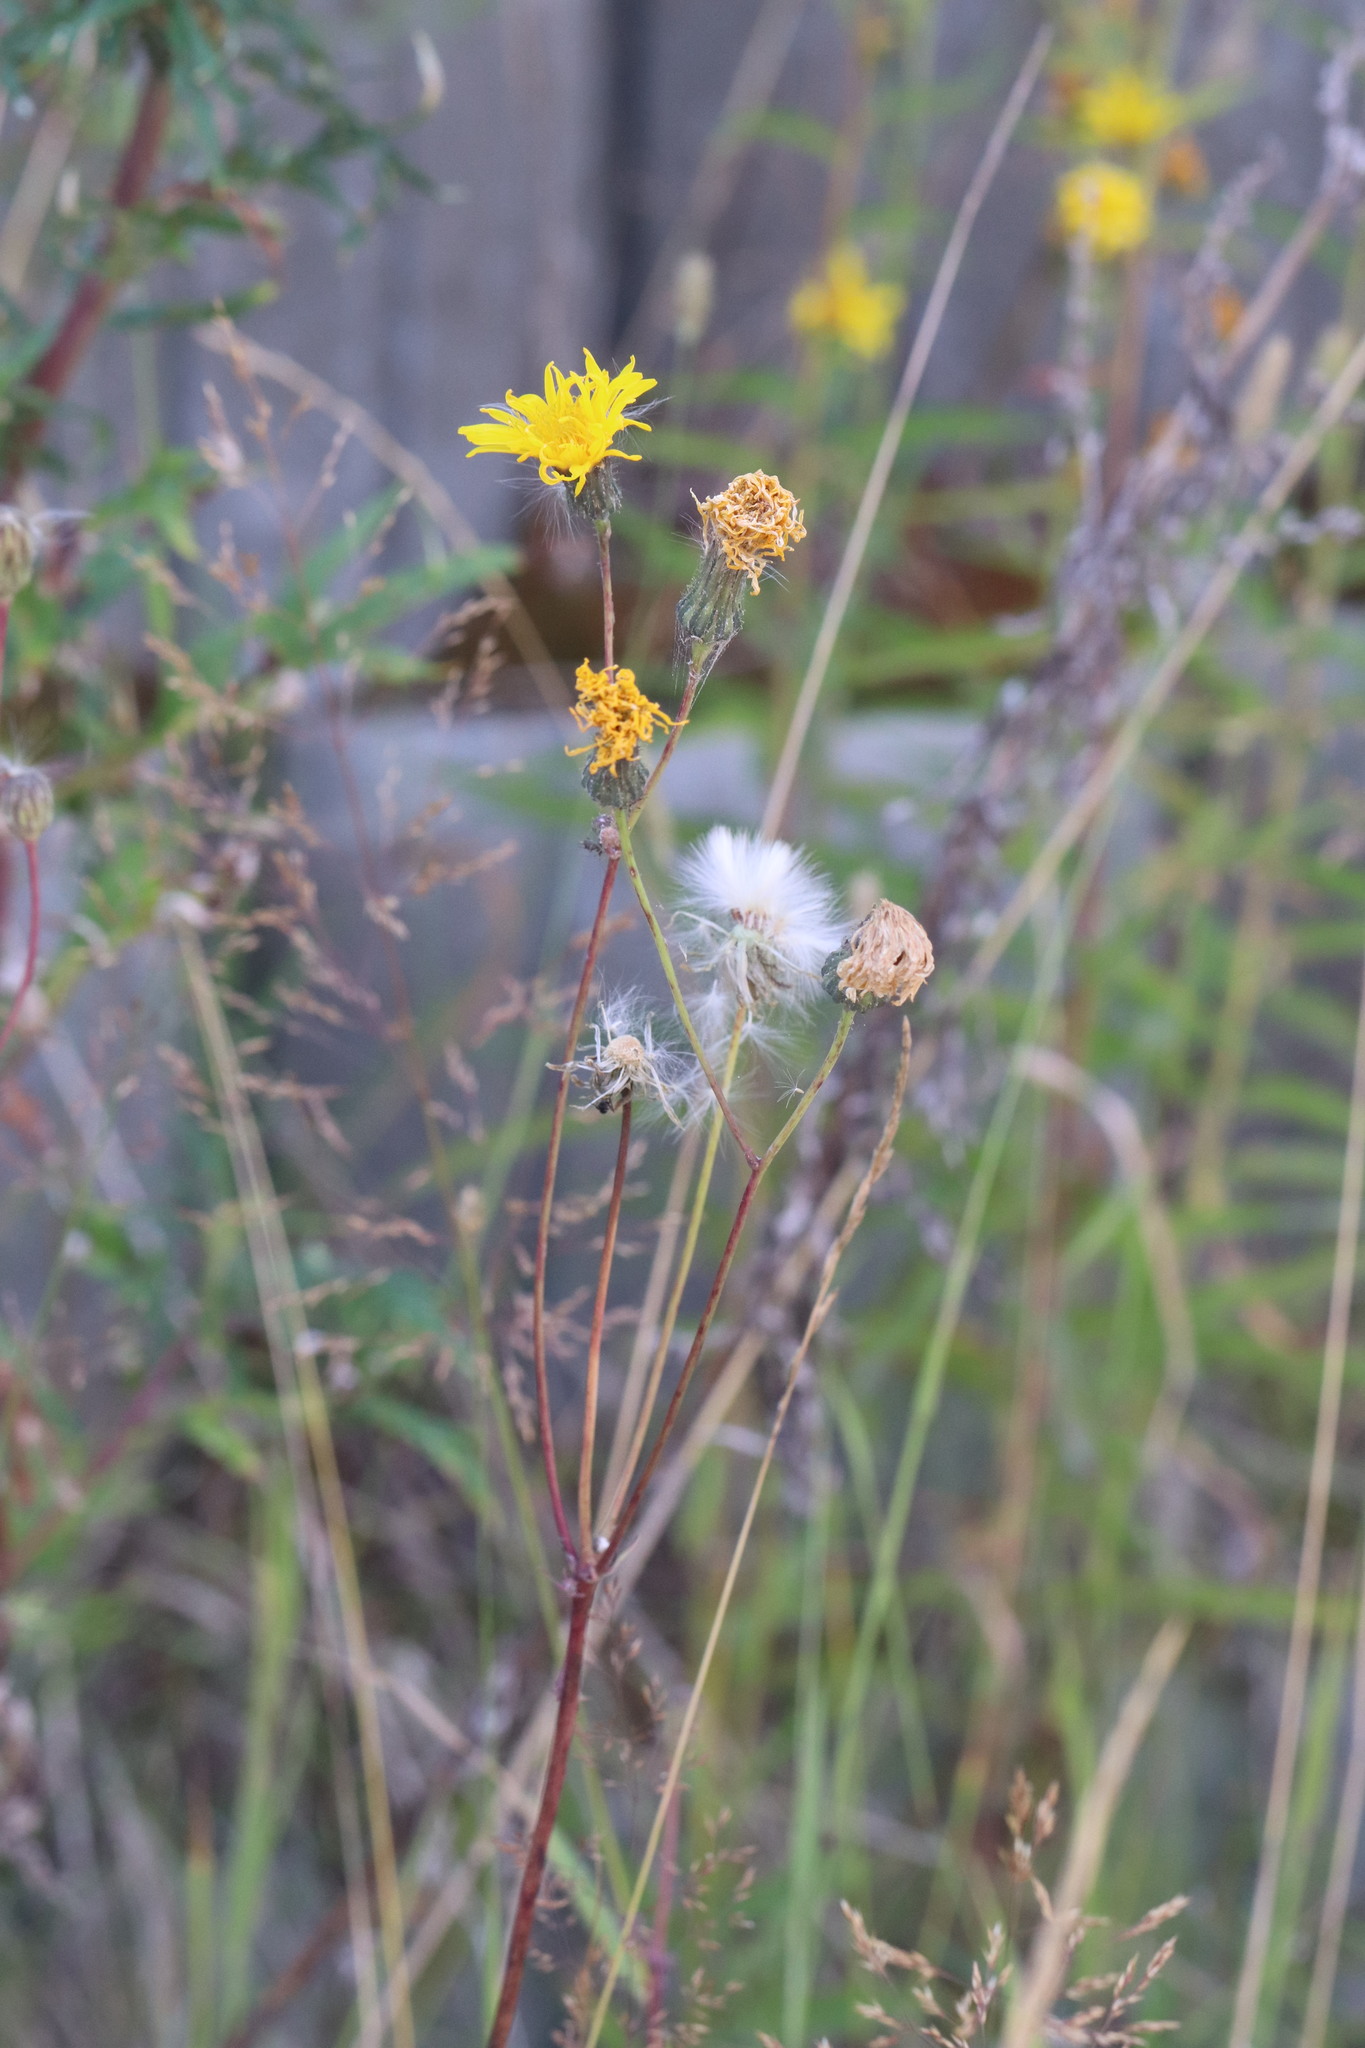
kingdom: Plantae
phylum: Tracheophyta
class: Magnoliopsida
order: Asterales
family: Asteraceae
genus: Sonchus
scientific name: Sonchus arvensis
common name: Perennial sow-thistle
